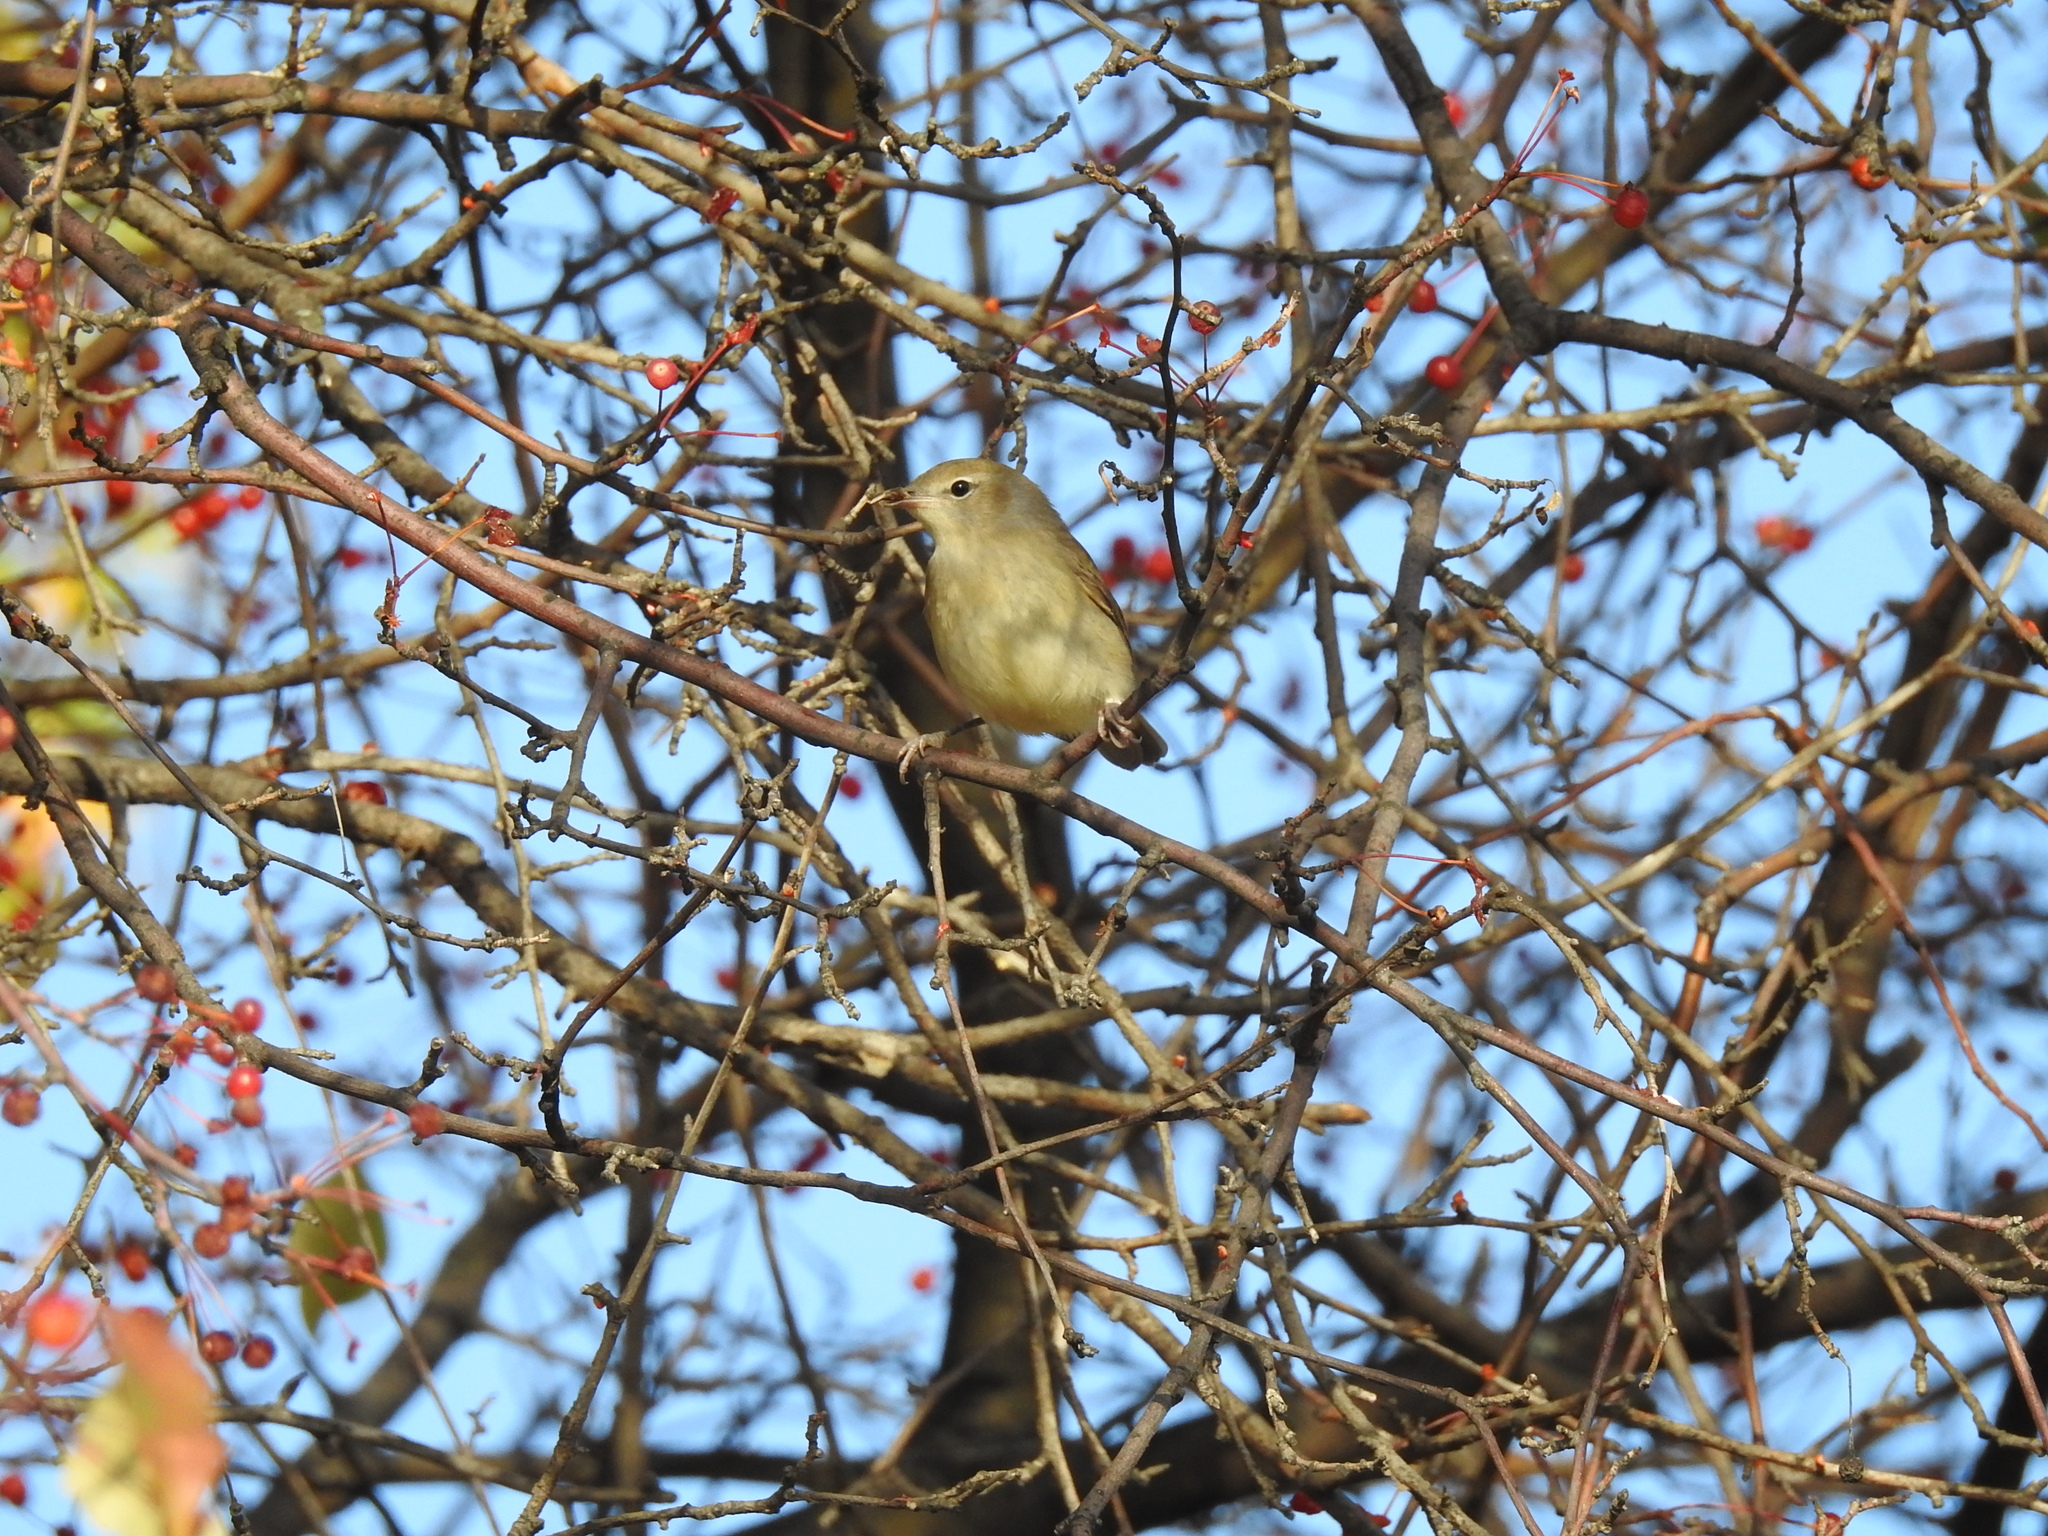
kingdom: Animalia
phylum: Chordata
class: Aves
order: Passeriformes
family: Sylviidae
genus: Sylvia
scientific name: Sylvia borin
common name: Garden warbler
